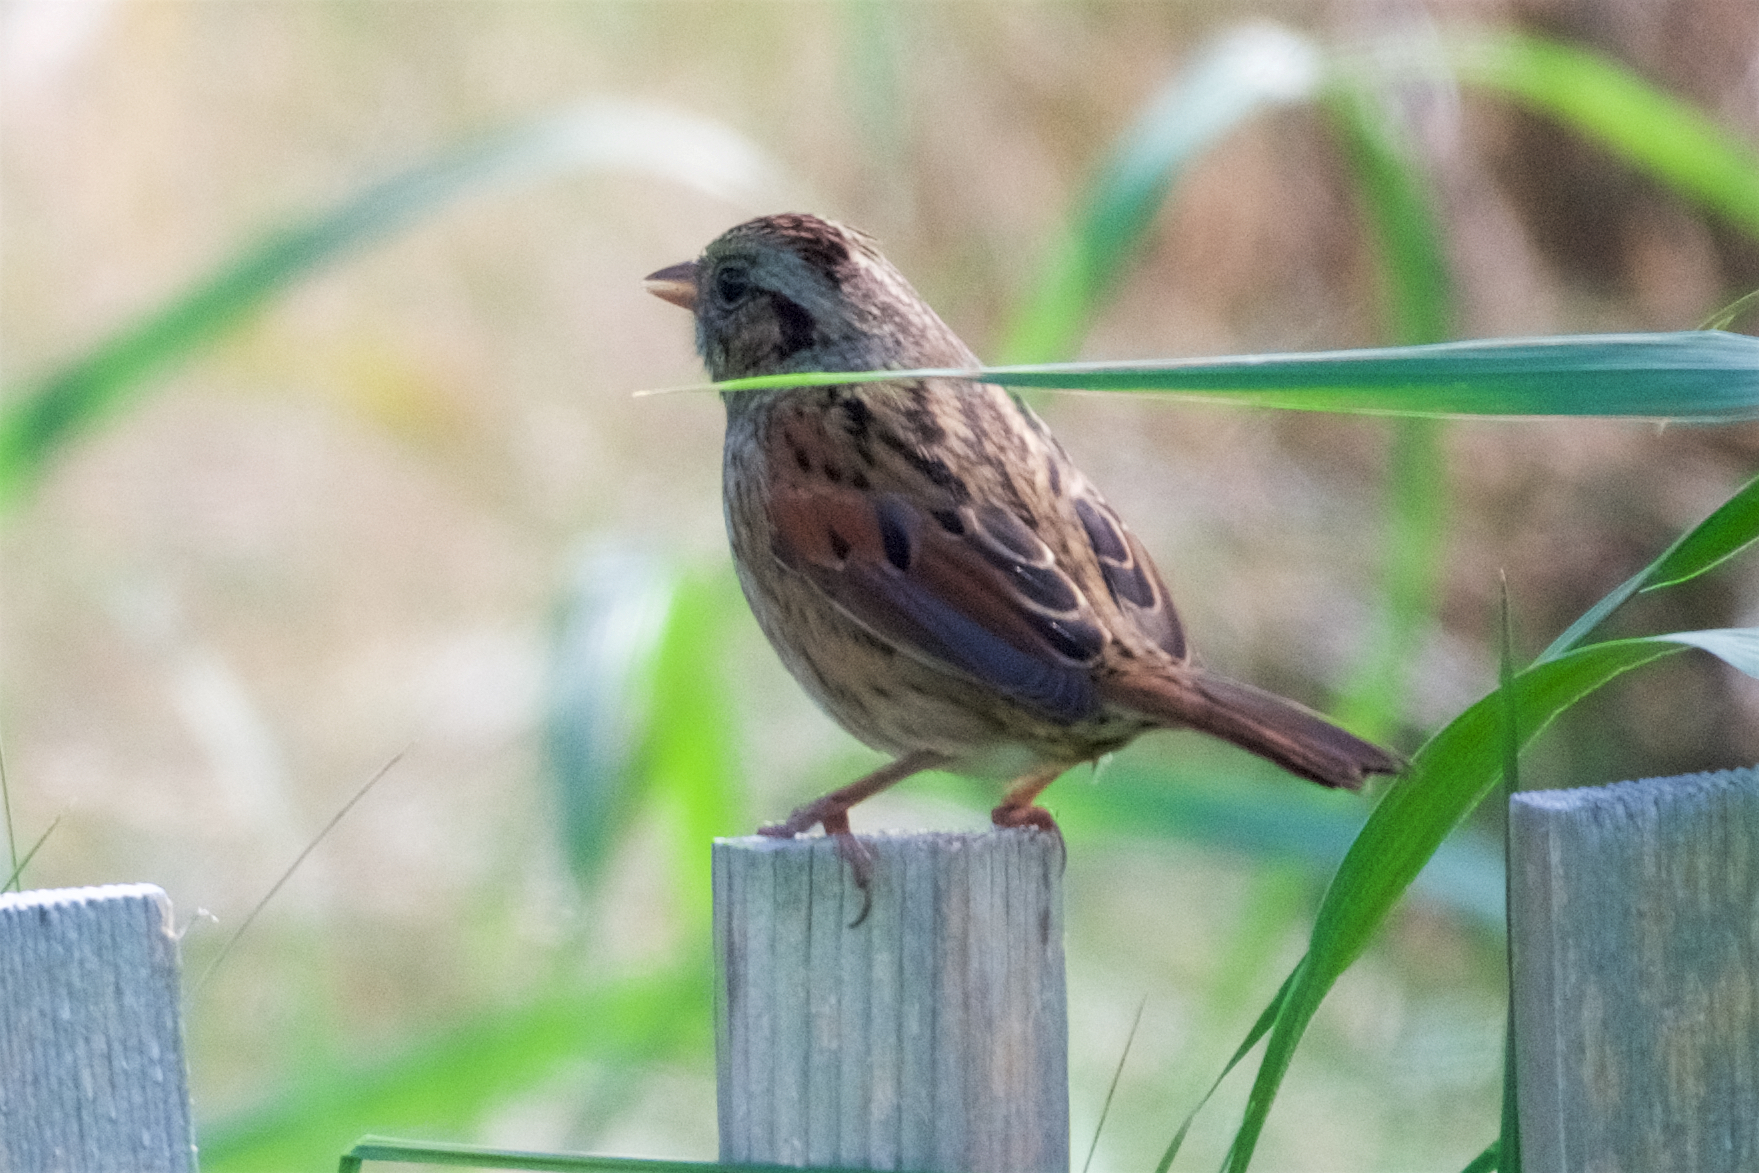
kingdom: Animalia
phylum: Chordata
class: Aves
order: Passeriformes
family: Passerellidae
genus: Melospiza
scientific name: Melospiza georgiana
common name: Swamp sparrow
